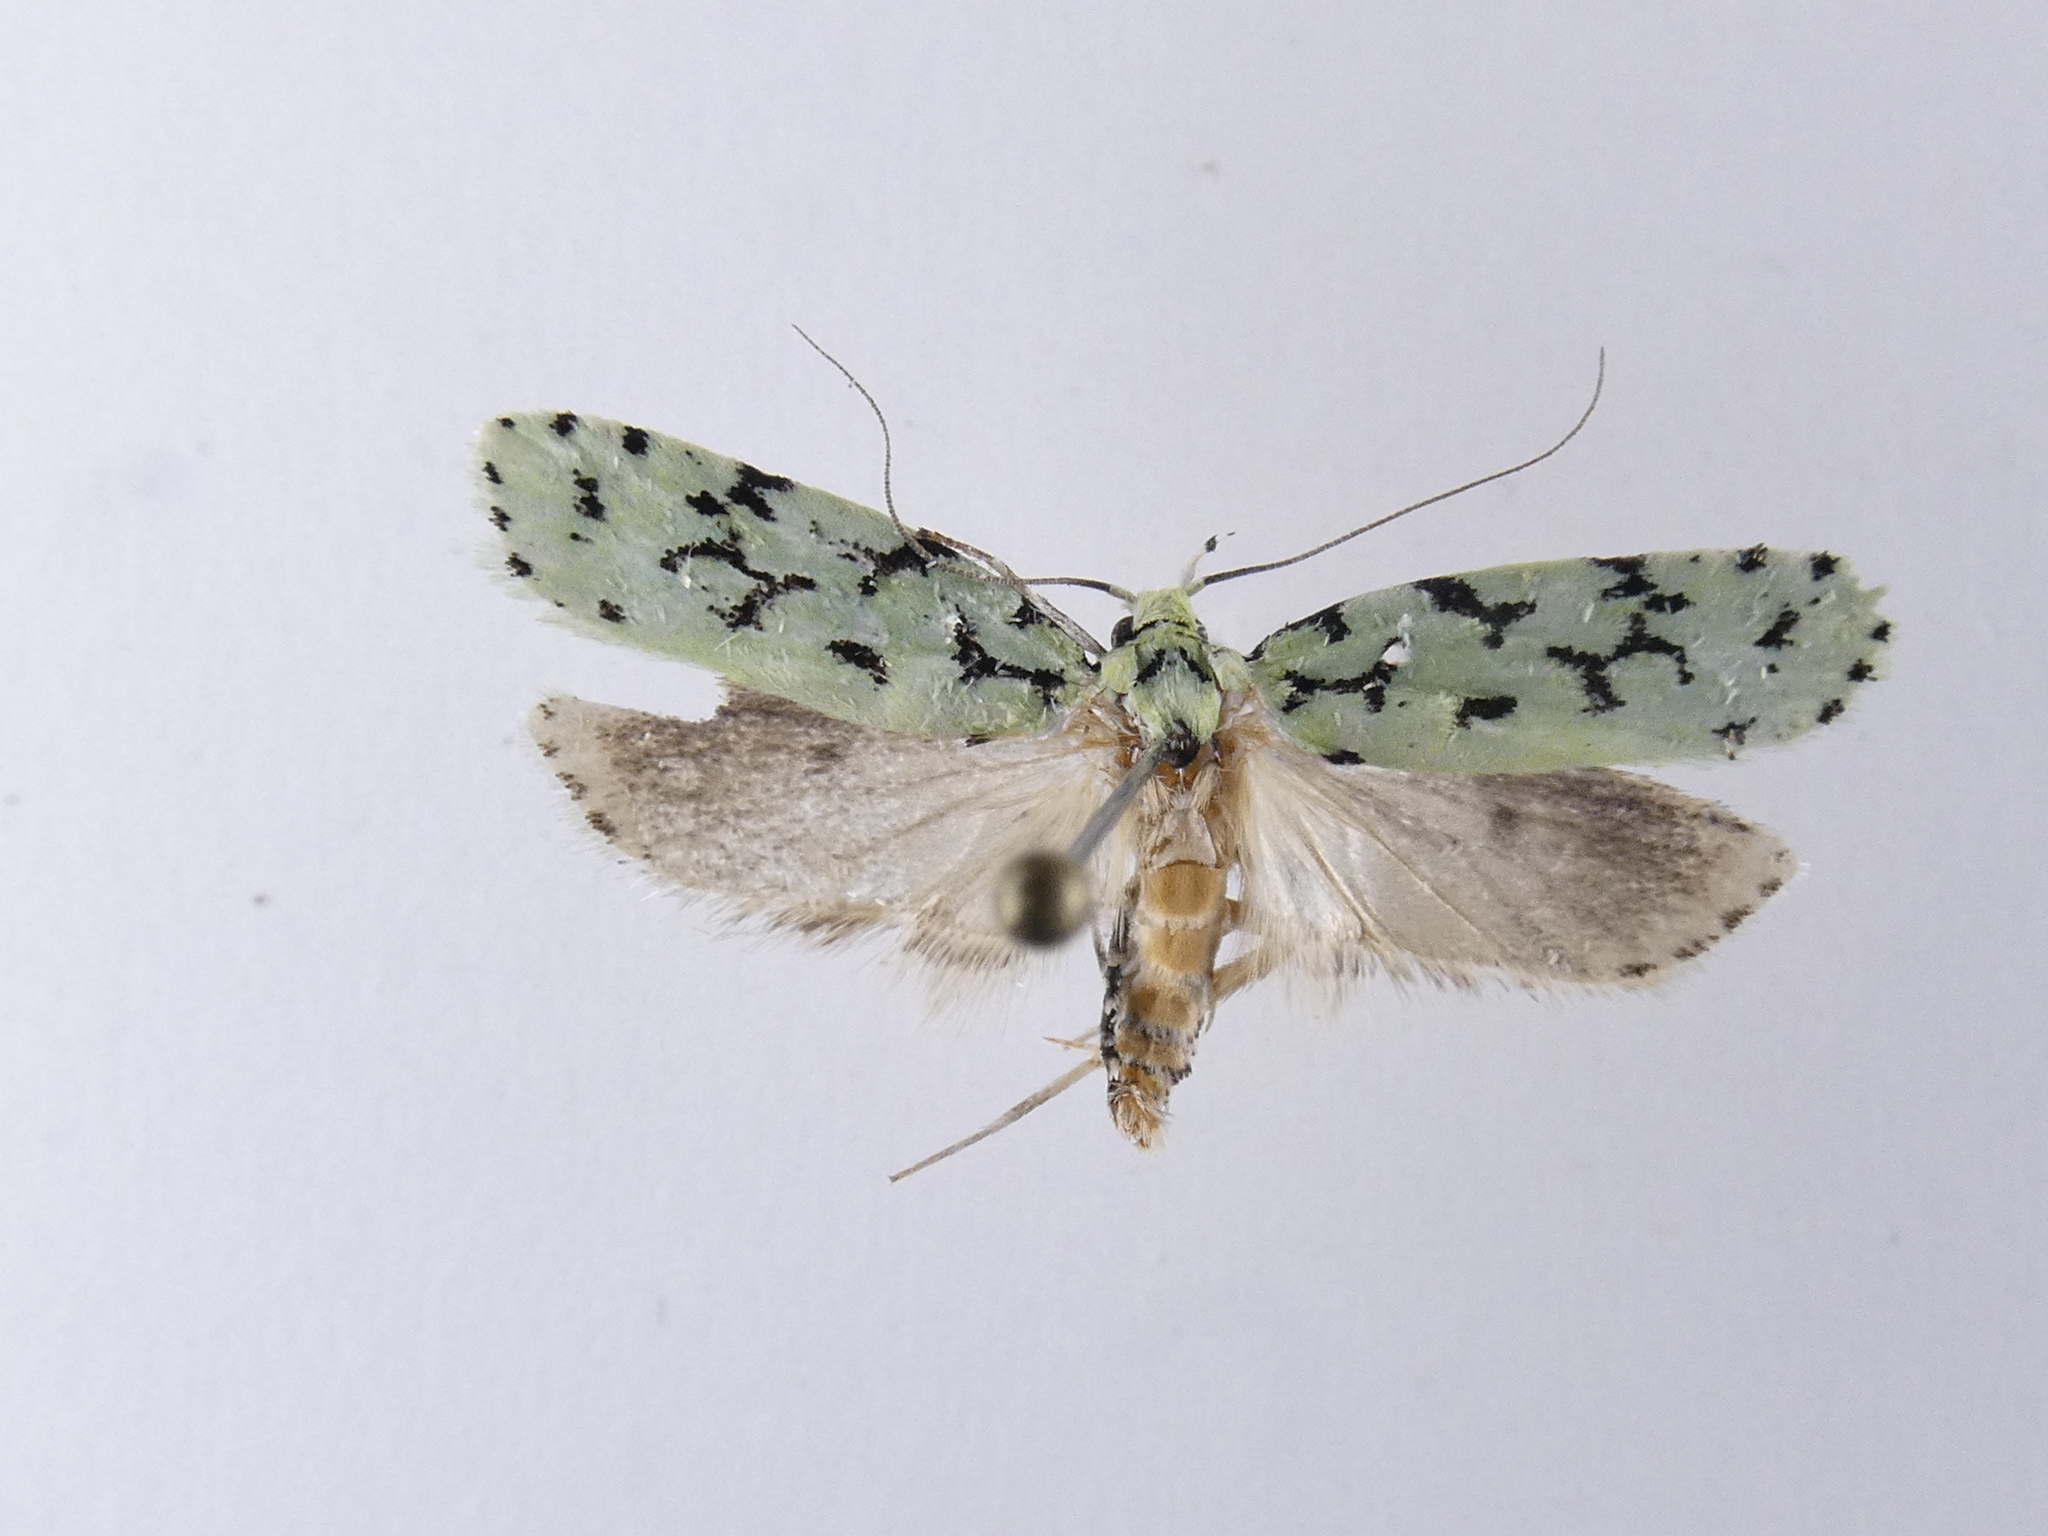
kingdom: Animalia
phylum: Arthropoda
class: Insecta
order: Lepidoptera
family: Oecophoridae
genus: Izatha
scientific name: Izatha huttoni
